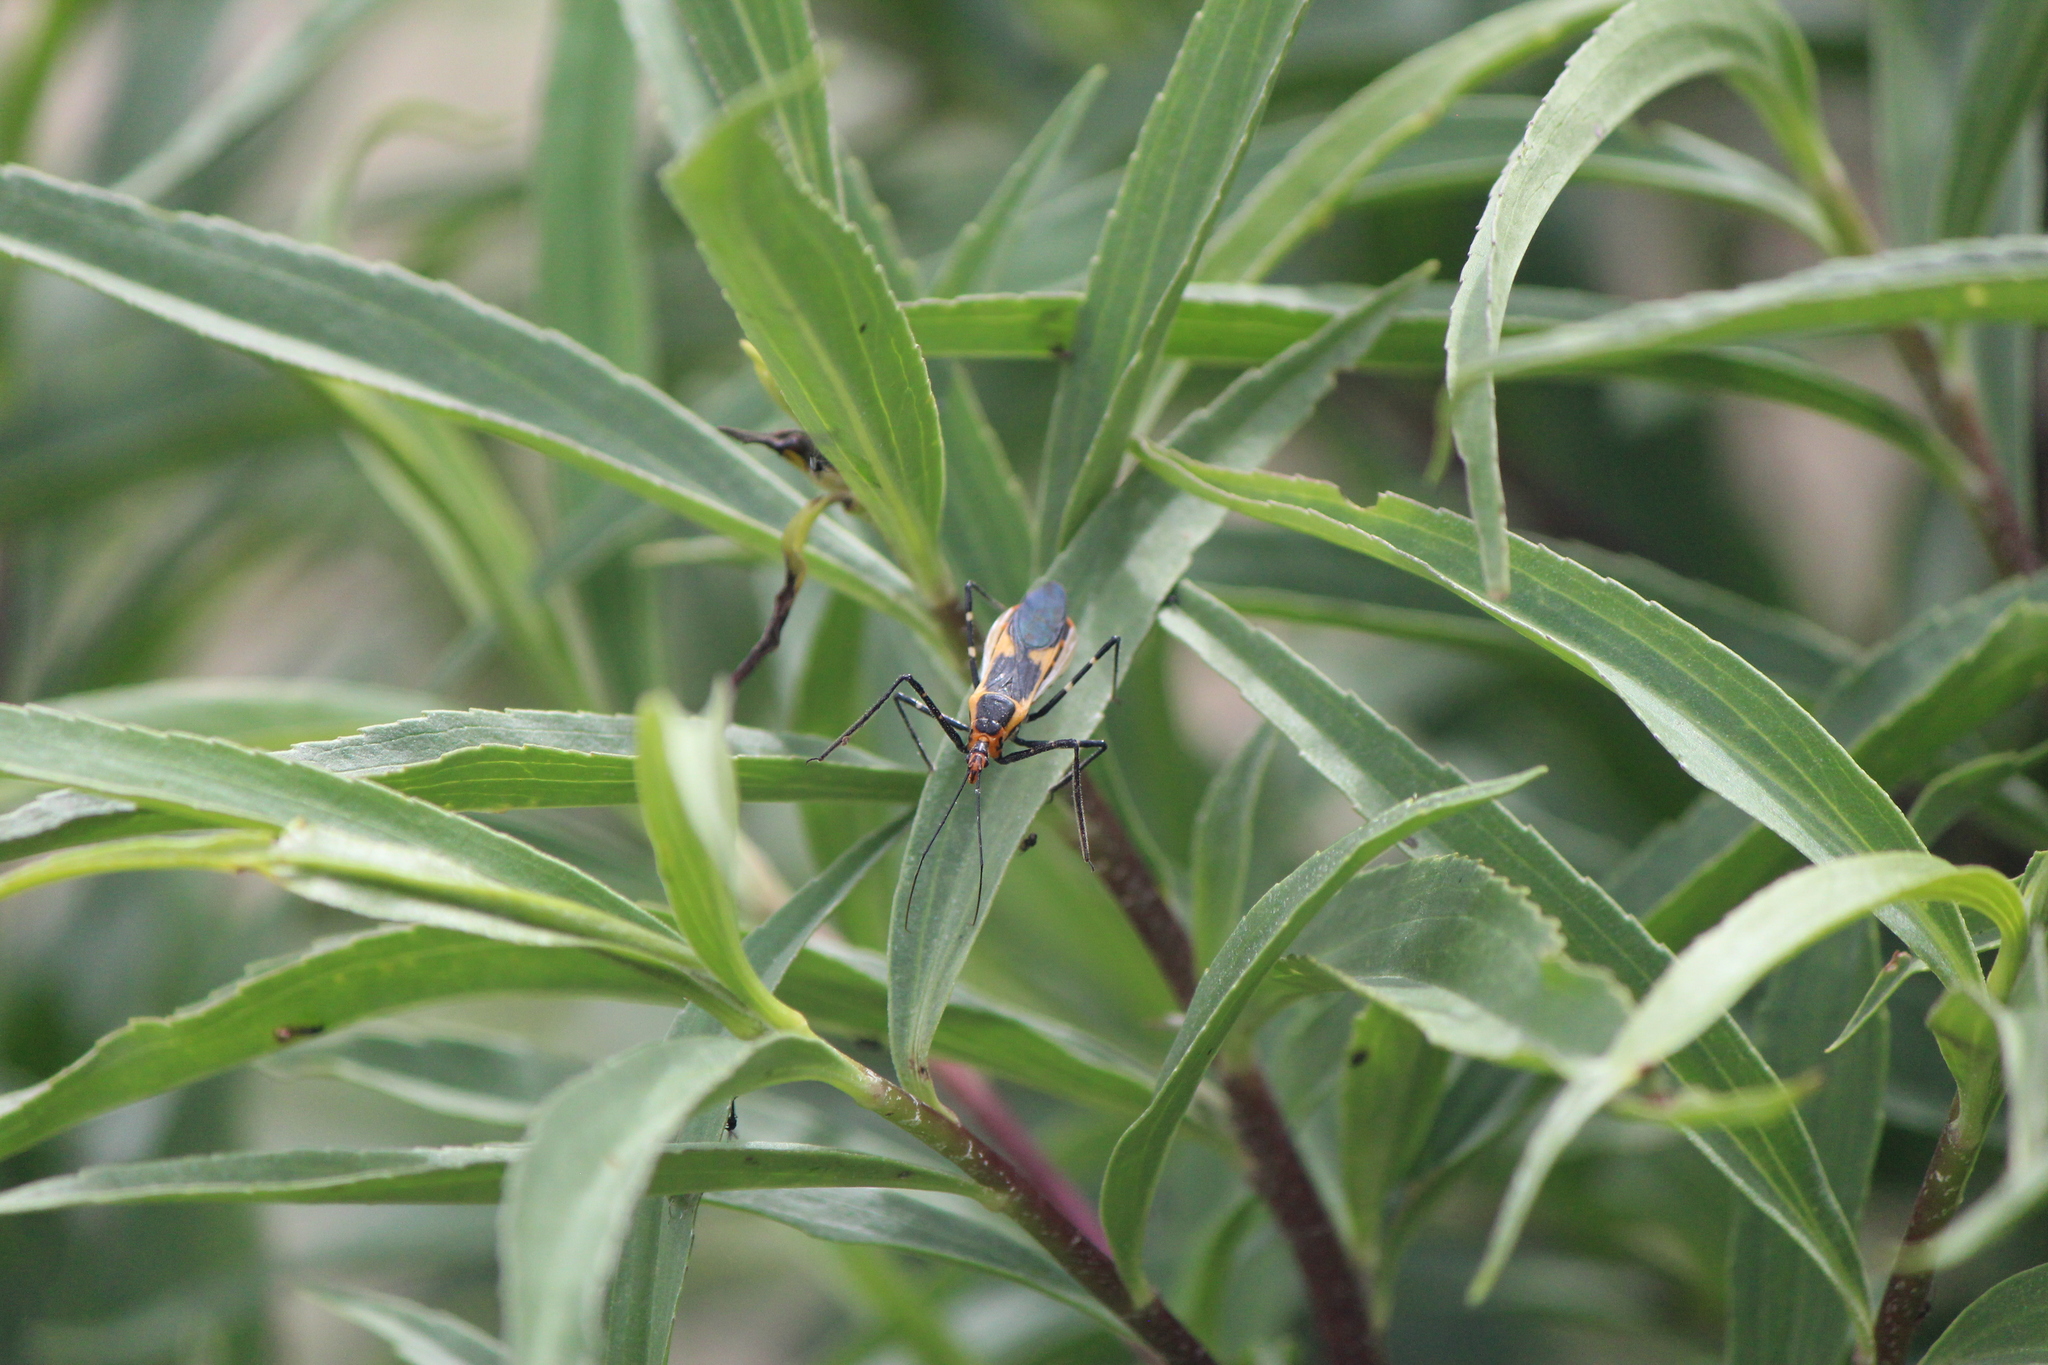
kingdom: Animalia
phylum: Arthropoda
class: Insecta
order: Hemiptera
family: Reduviidae
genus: Zelus
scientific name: Zelus longipes
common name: Milkweed assassin bug
